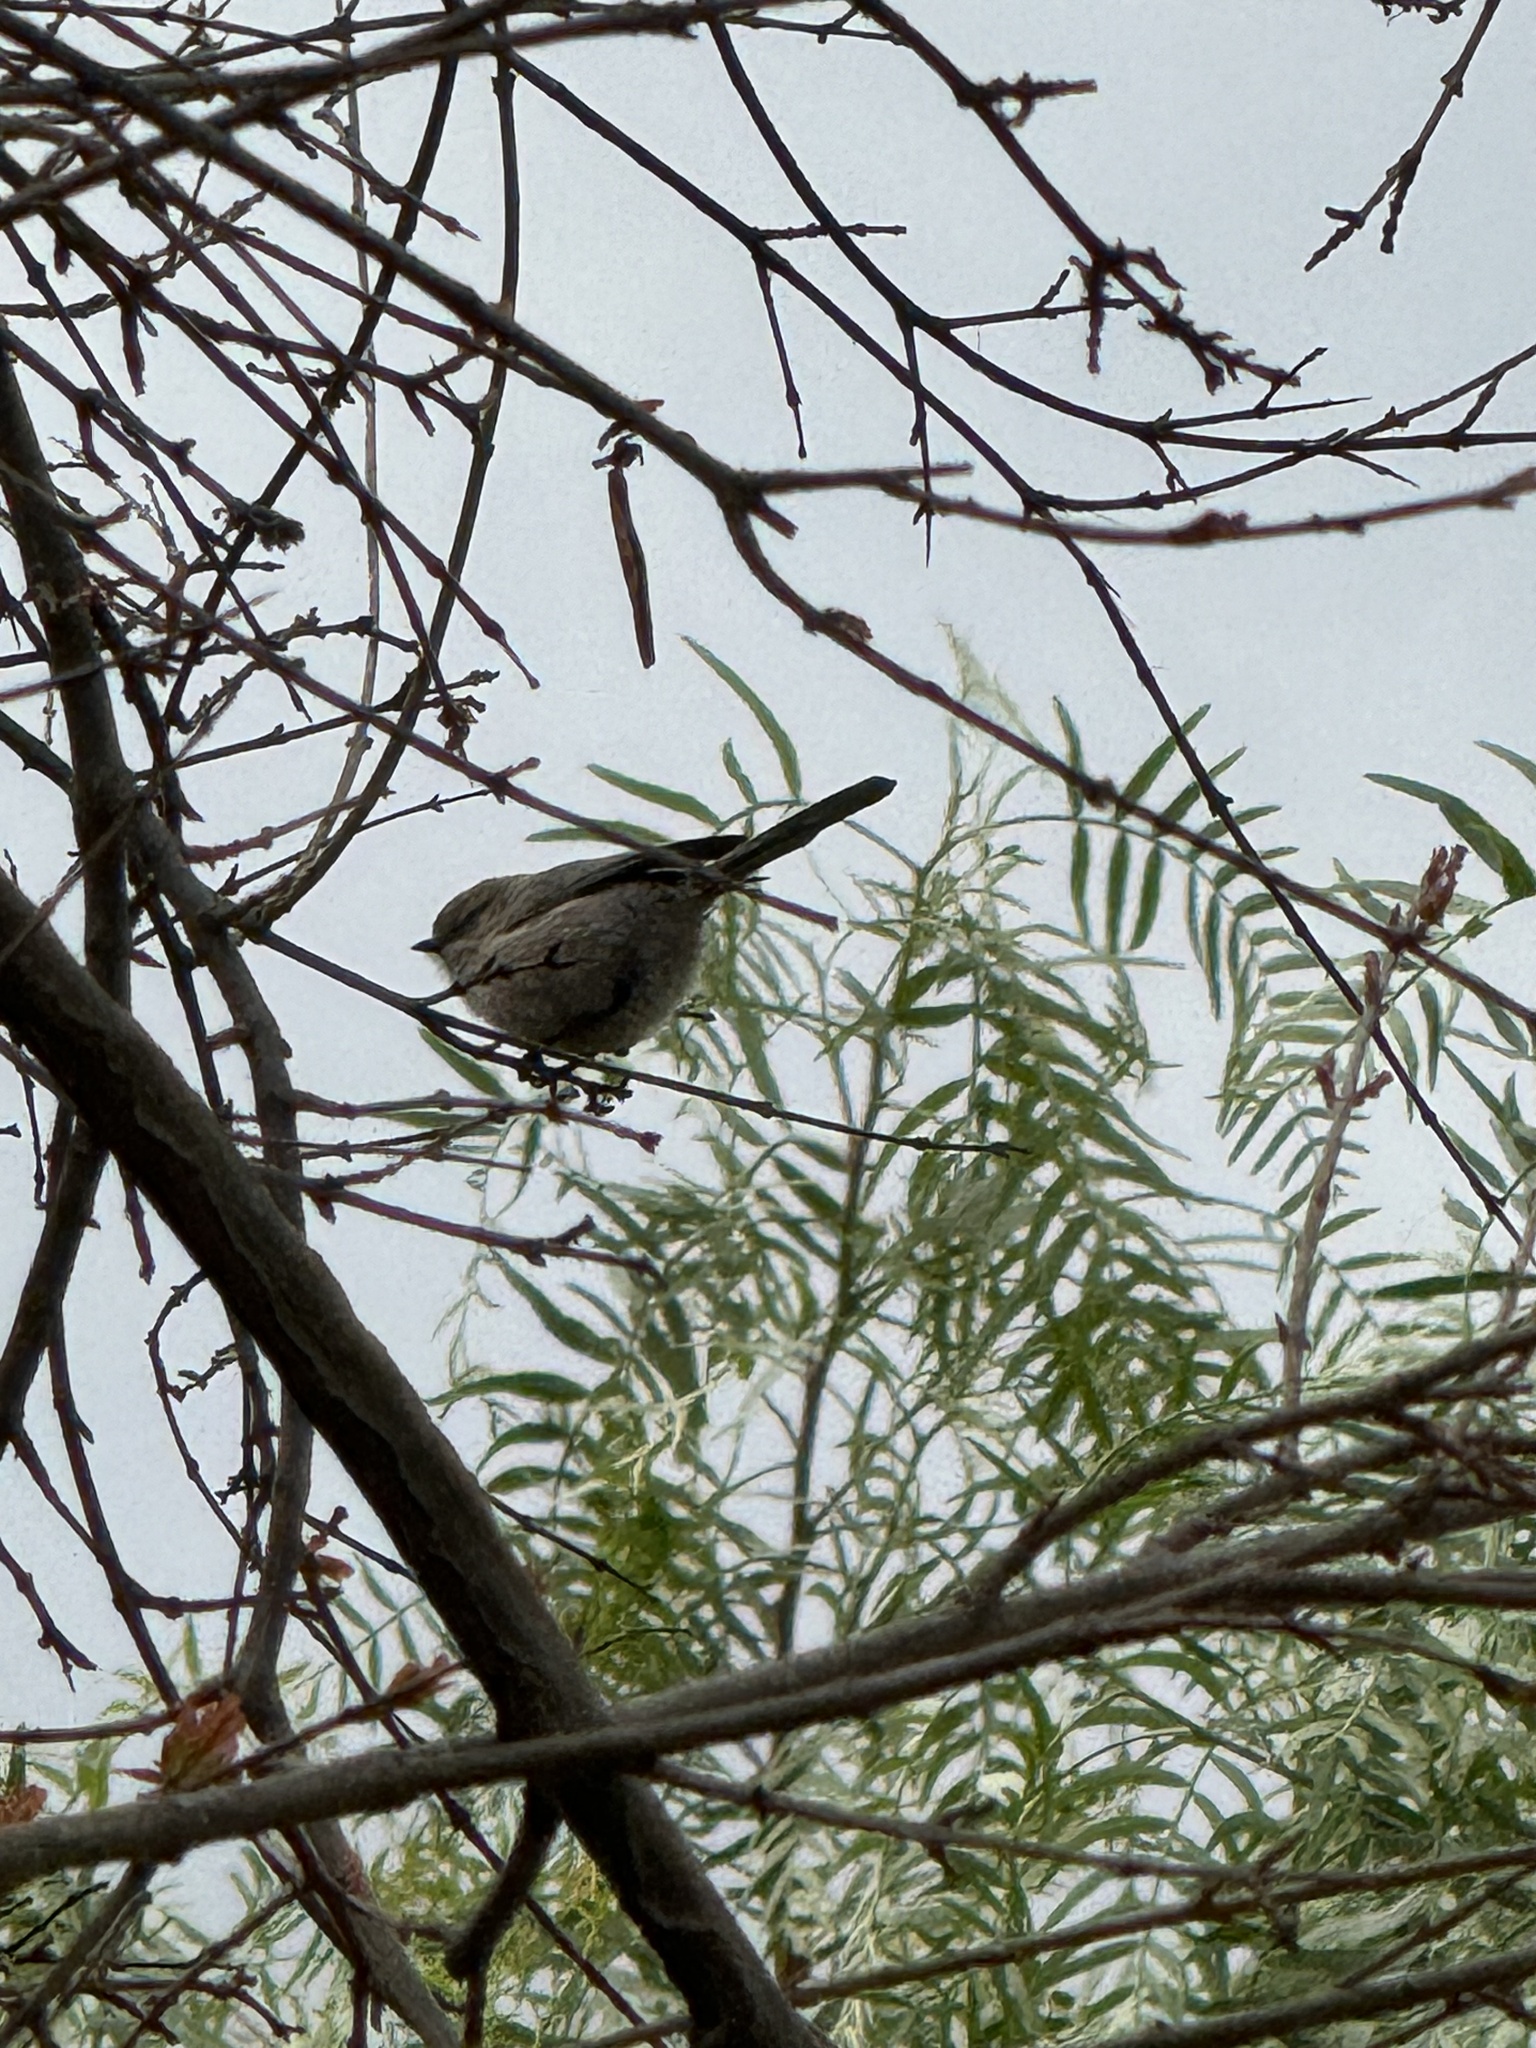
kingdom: Animalia
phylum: Chordata
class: Aves
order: Passeriformes
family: Aegithalidae
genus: Psaltriparus
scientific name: Psaltriparus minimus
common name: American bushtit
